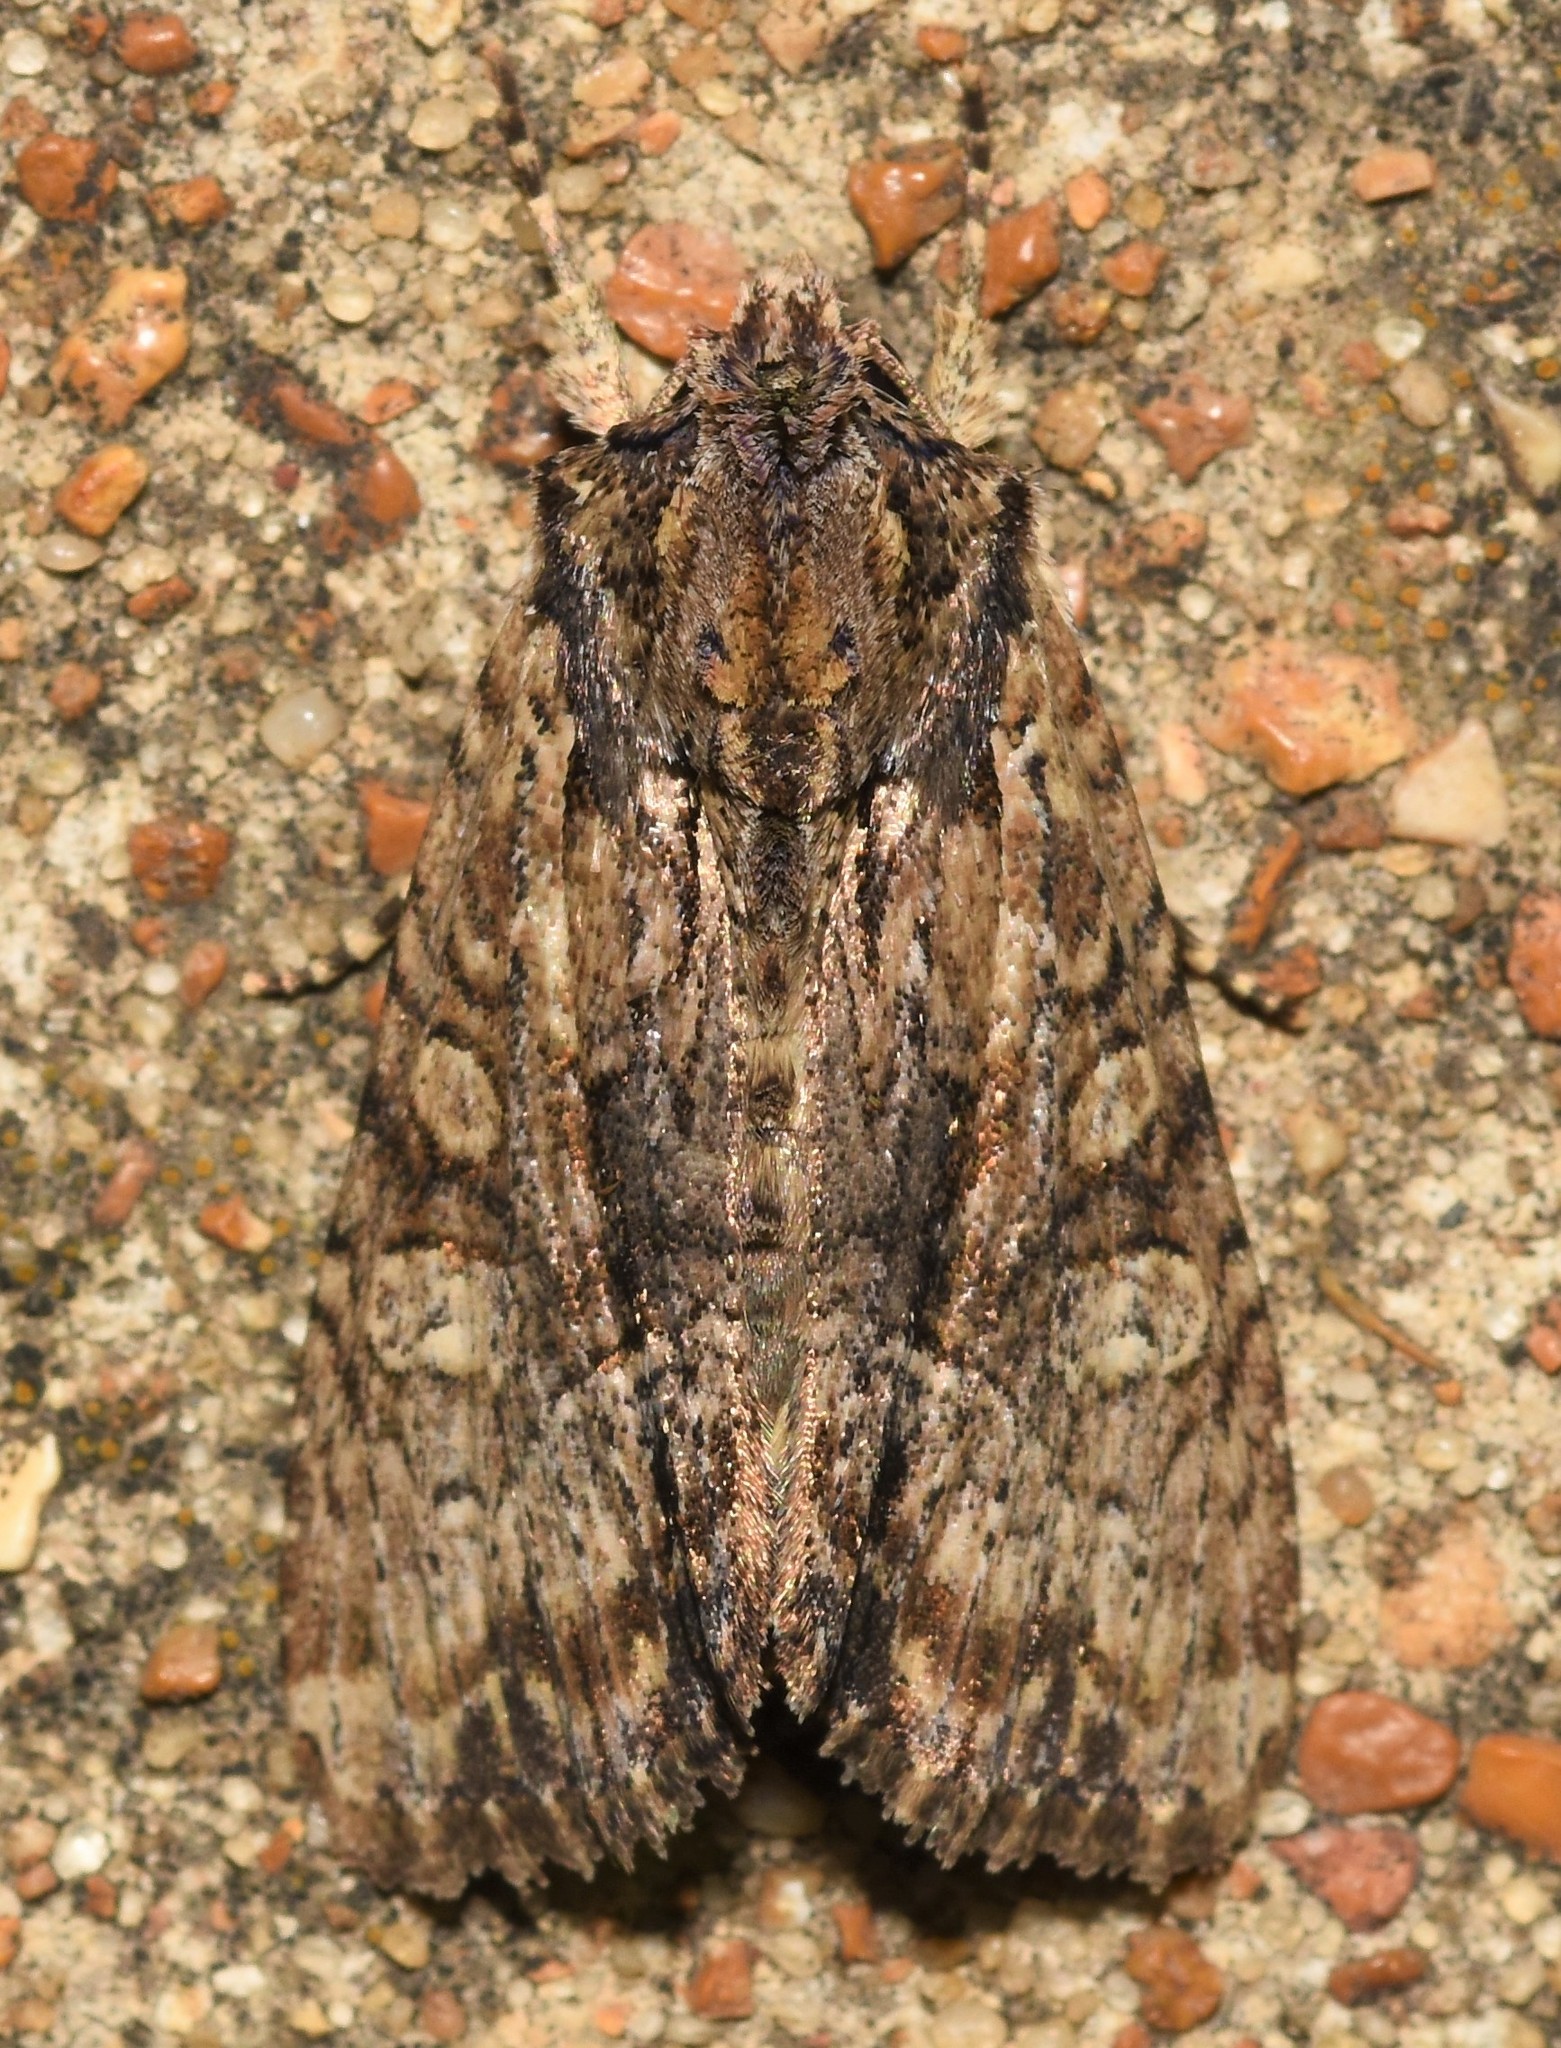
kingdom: Animalia
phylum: Arthropoda
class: Insecta
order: Lepidoptera
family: Noctuidae
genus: Apamea
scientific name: Apamea quinteri
